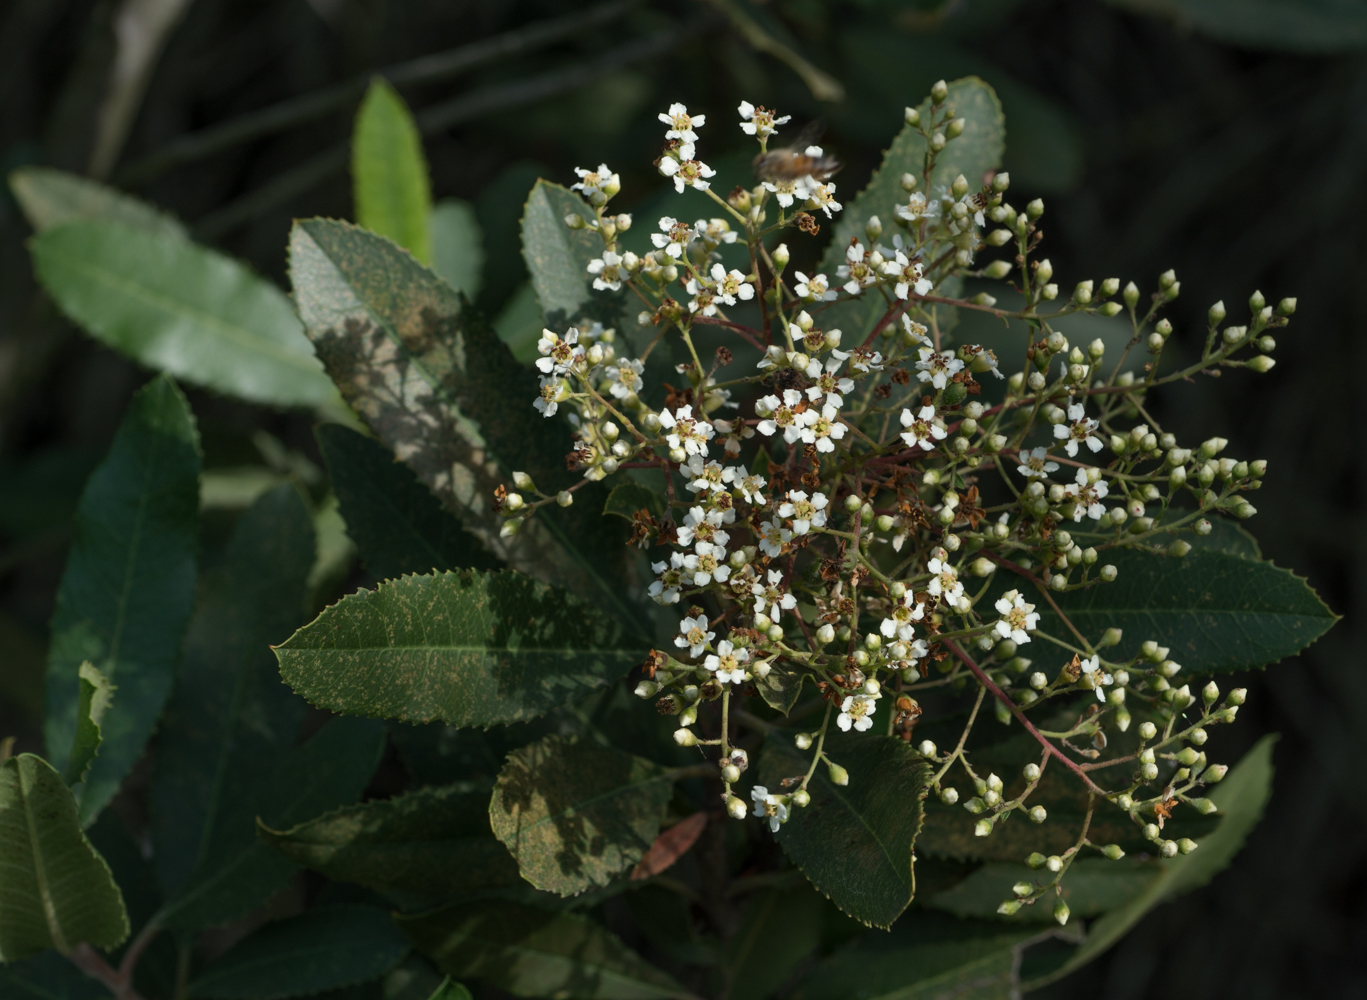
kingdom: Plantae
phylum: Tracheophyta
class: Magnoliopsida
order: Rosales
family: Rosaceae
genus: Heteromeles
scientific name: Heteromeles arbutifolia
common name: California-holly
